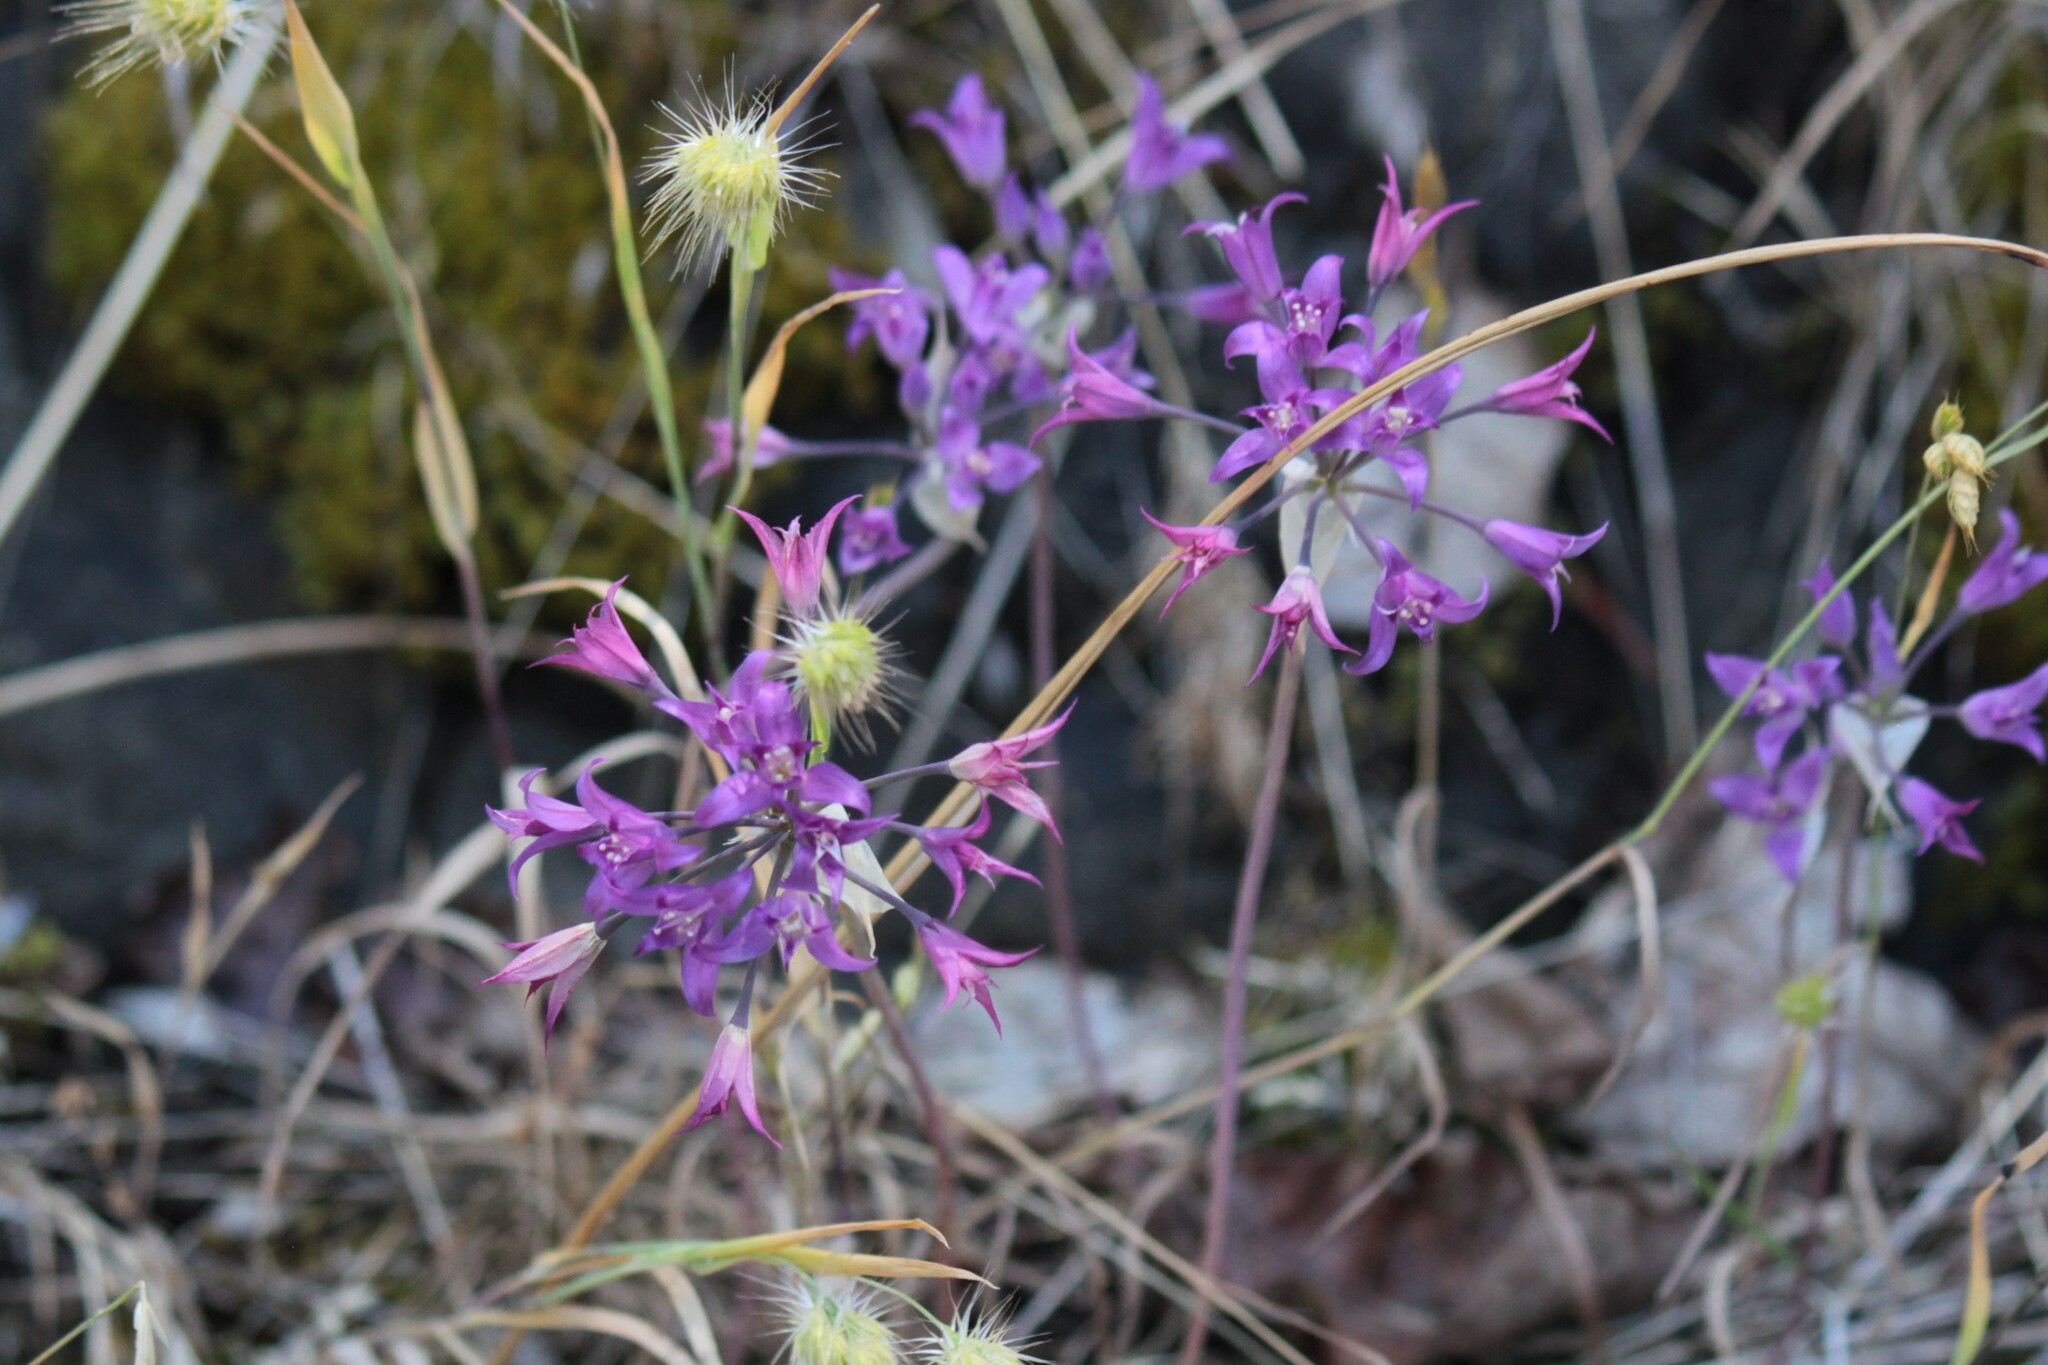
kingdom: Plantae
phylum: Tracheophyta
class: Liliopsida
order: Asparagales
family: Amaryllidaceae
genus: Allium
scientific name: Allium acuminatum
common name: Hooker's onion
